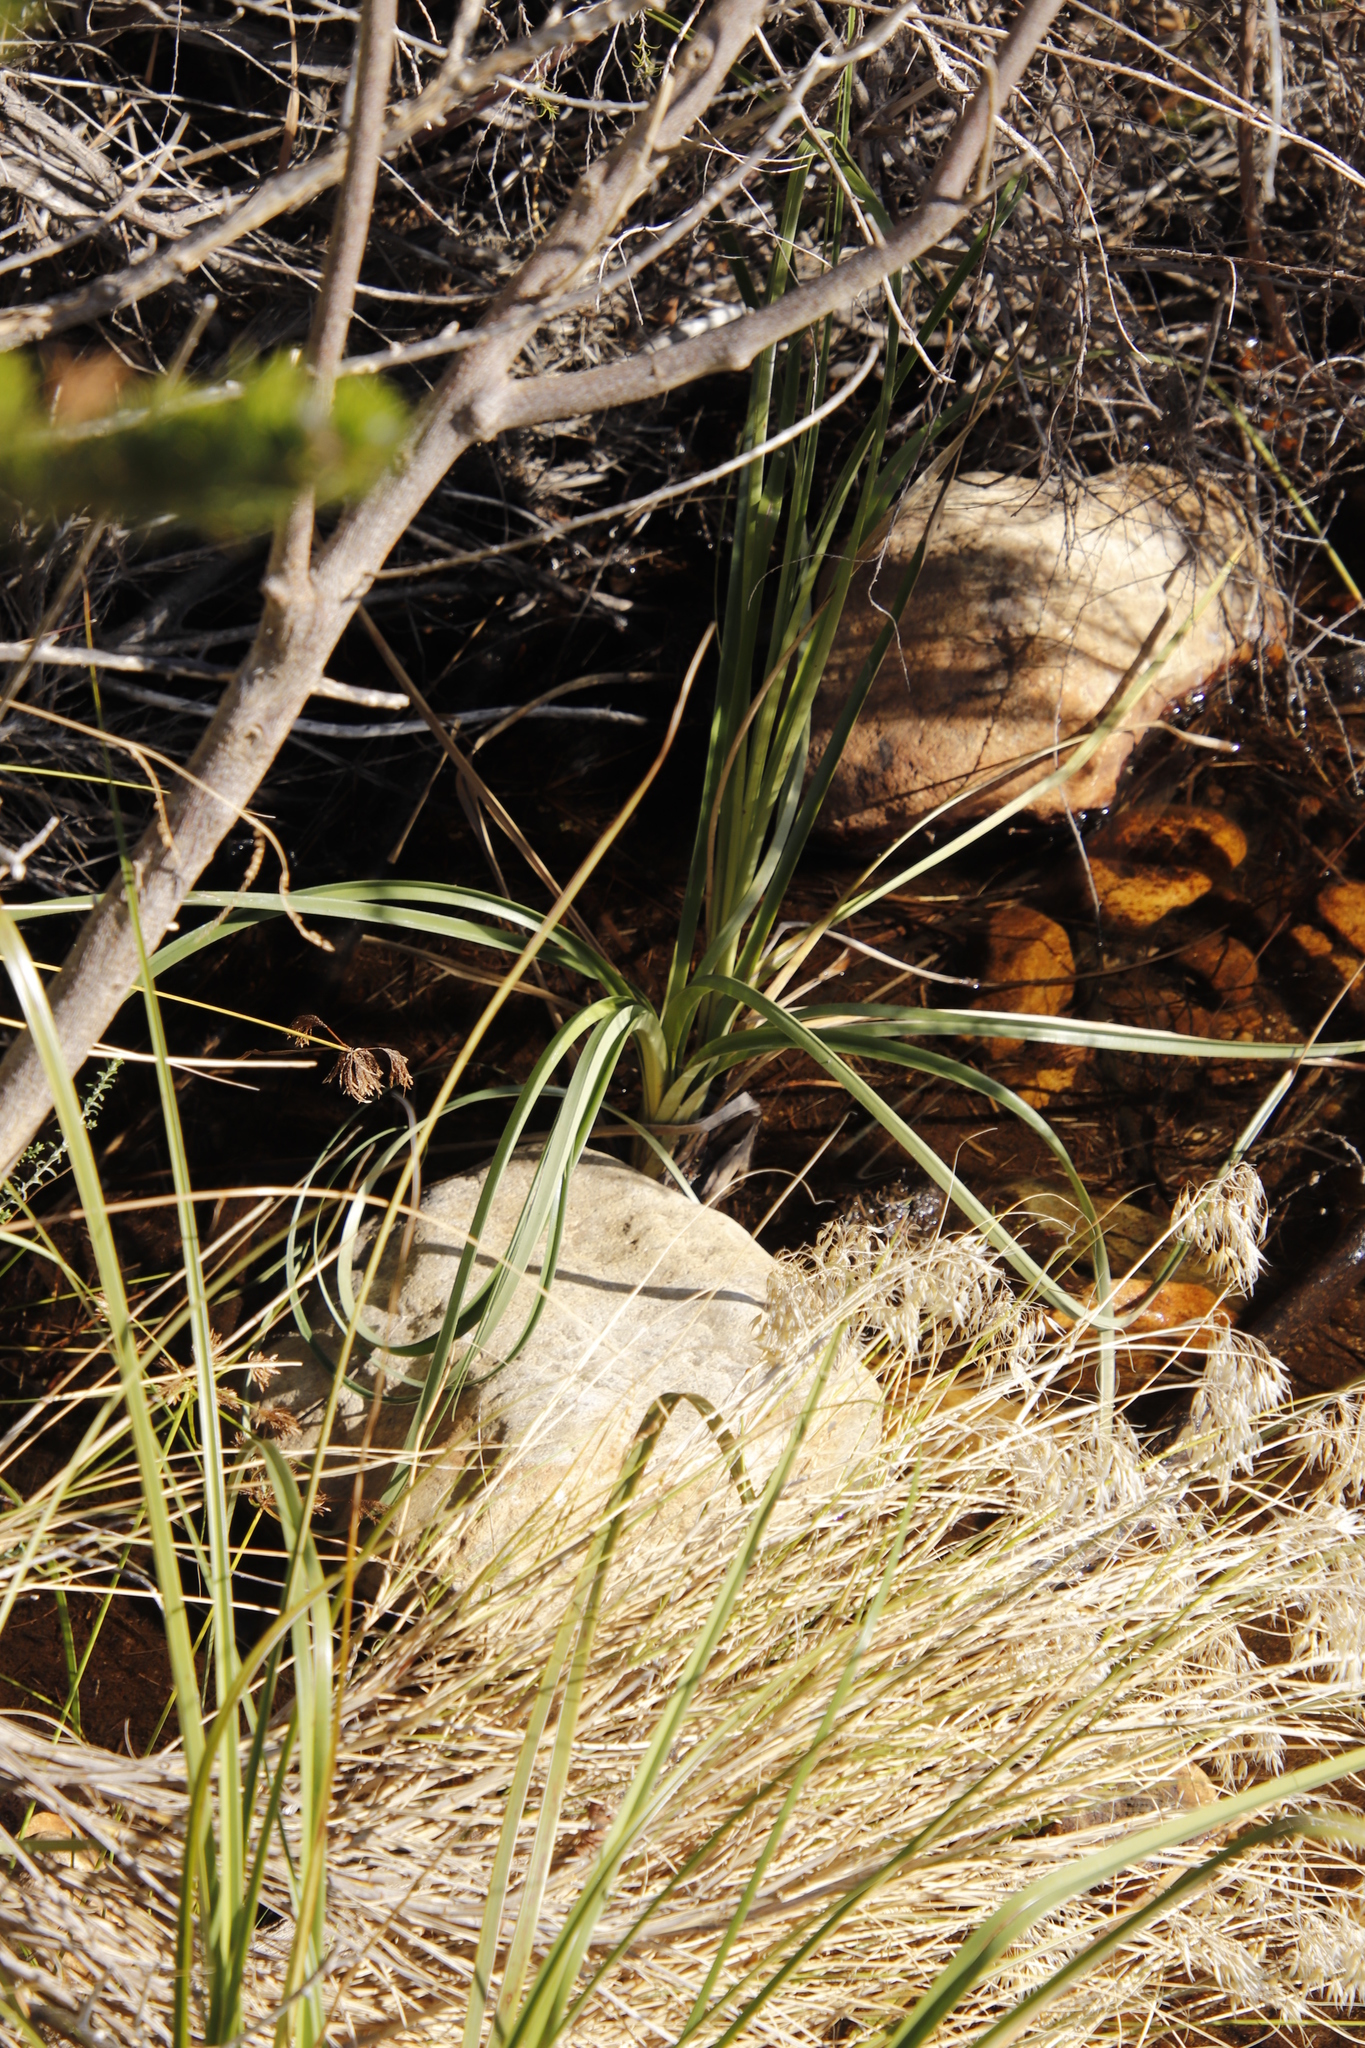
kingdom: Plantae
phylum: Tracheophyta
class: Liliopsida
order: Poales
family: Thurniaceae
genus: Prionium
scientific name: Prionium serratum
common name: Palmiet
